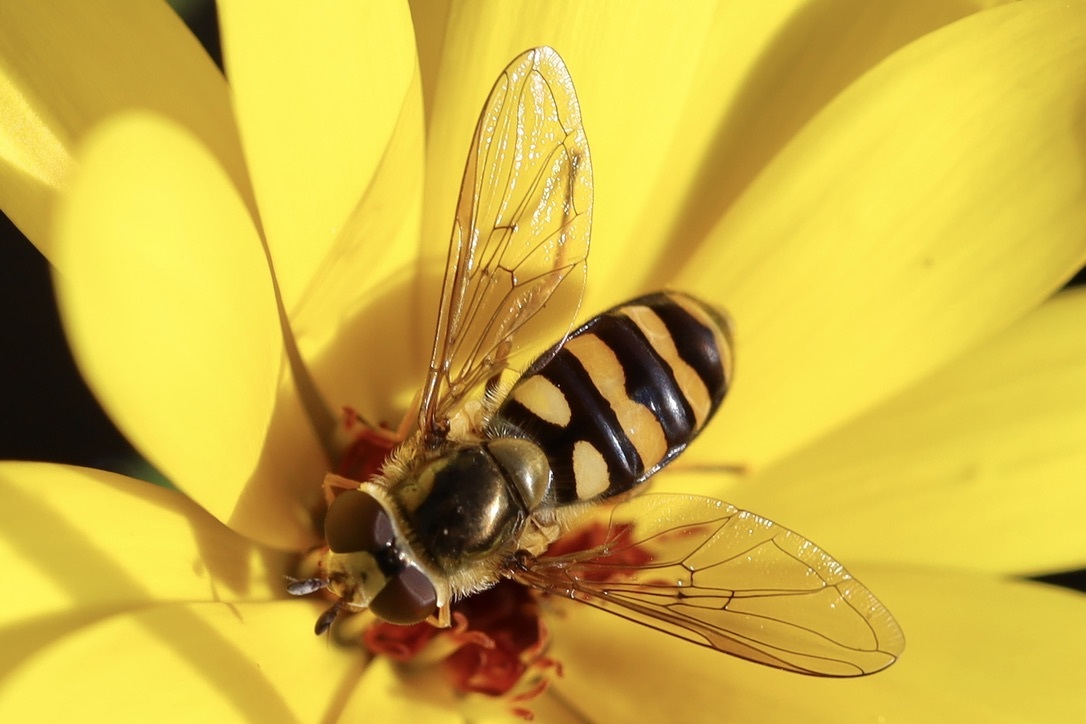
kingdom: Animalia
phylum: Arthropoda
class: Insecta
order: Diptera
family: Syrphidae
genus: Eupeodes
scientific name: Eupeodes fumipennis
